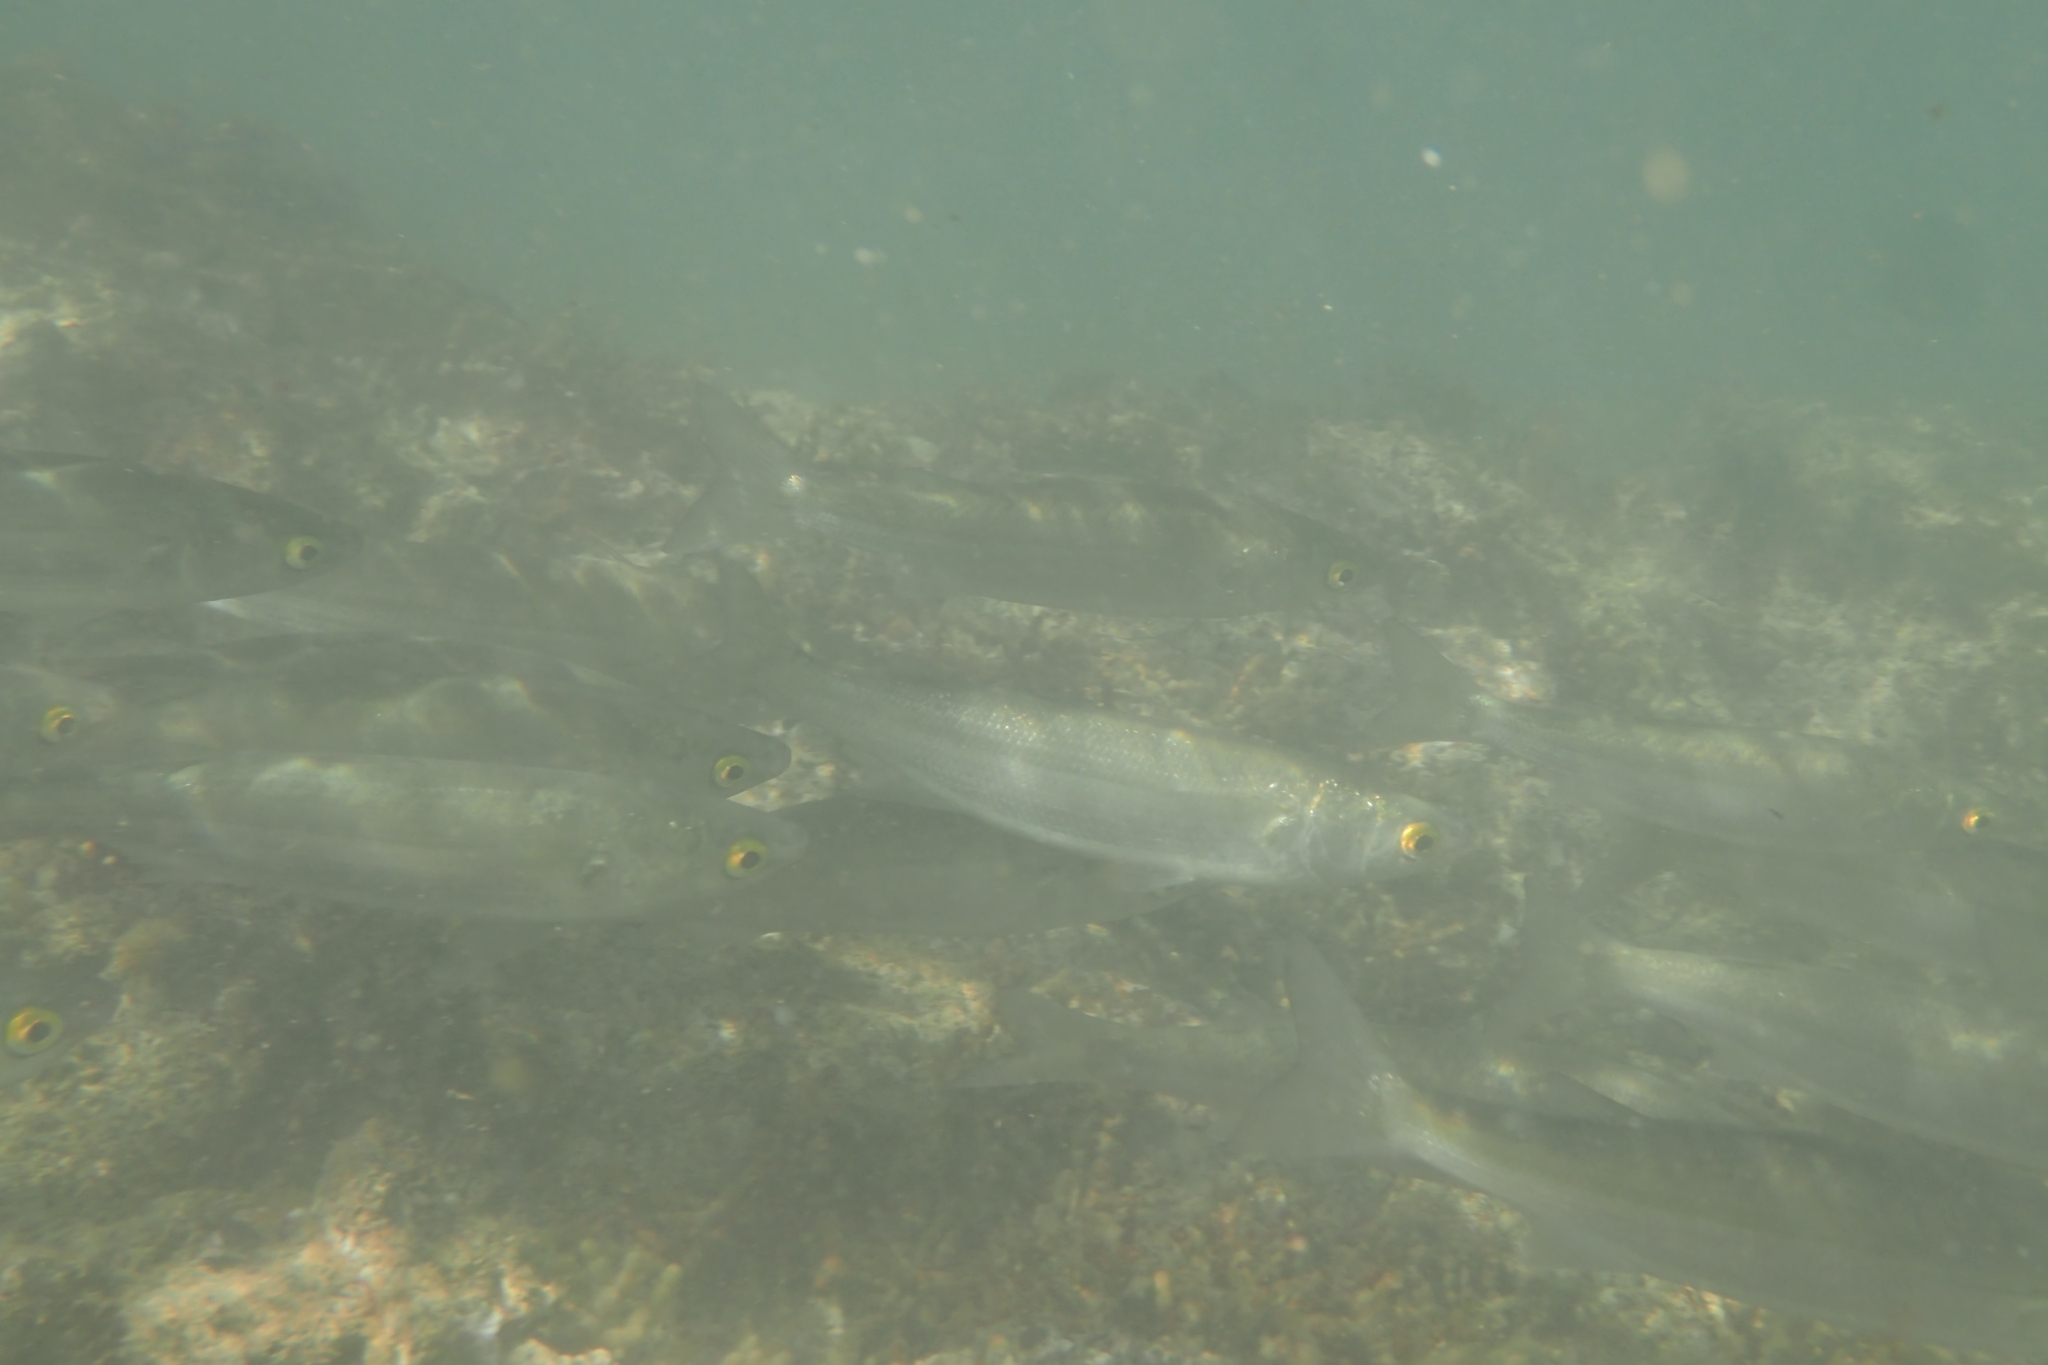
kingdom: Animalia
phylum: Chordata
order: Mugiliformes
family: Mugilidae
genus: Aldrichetta
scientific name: Aldrichetta forsteri
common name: Yellow-eye mullet
